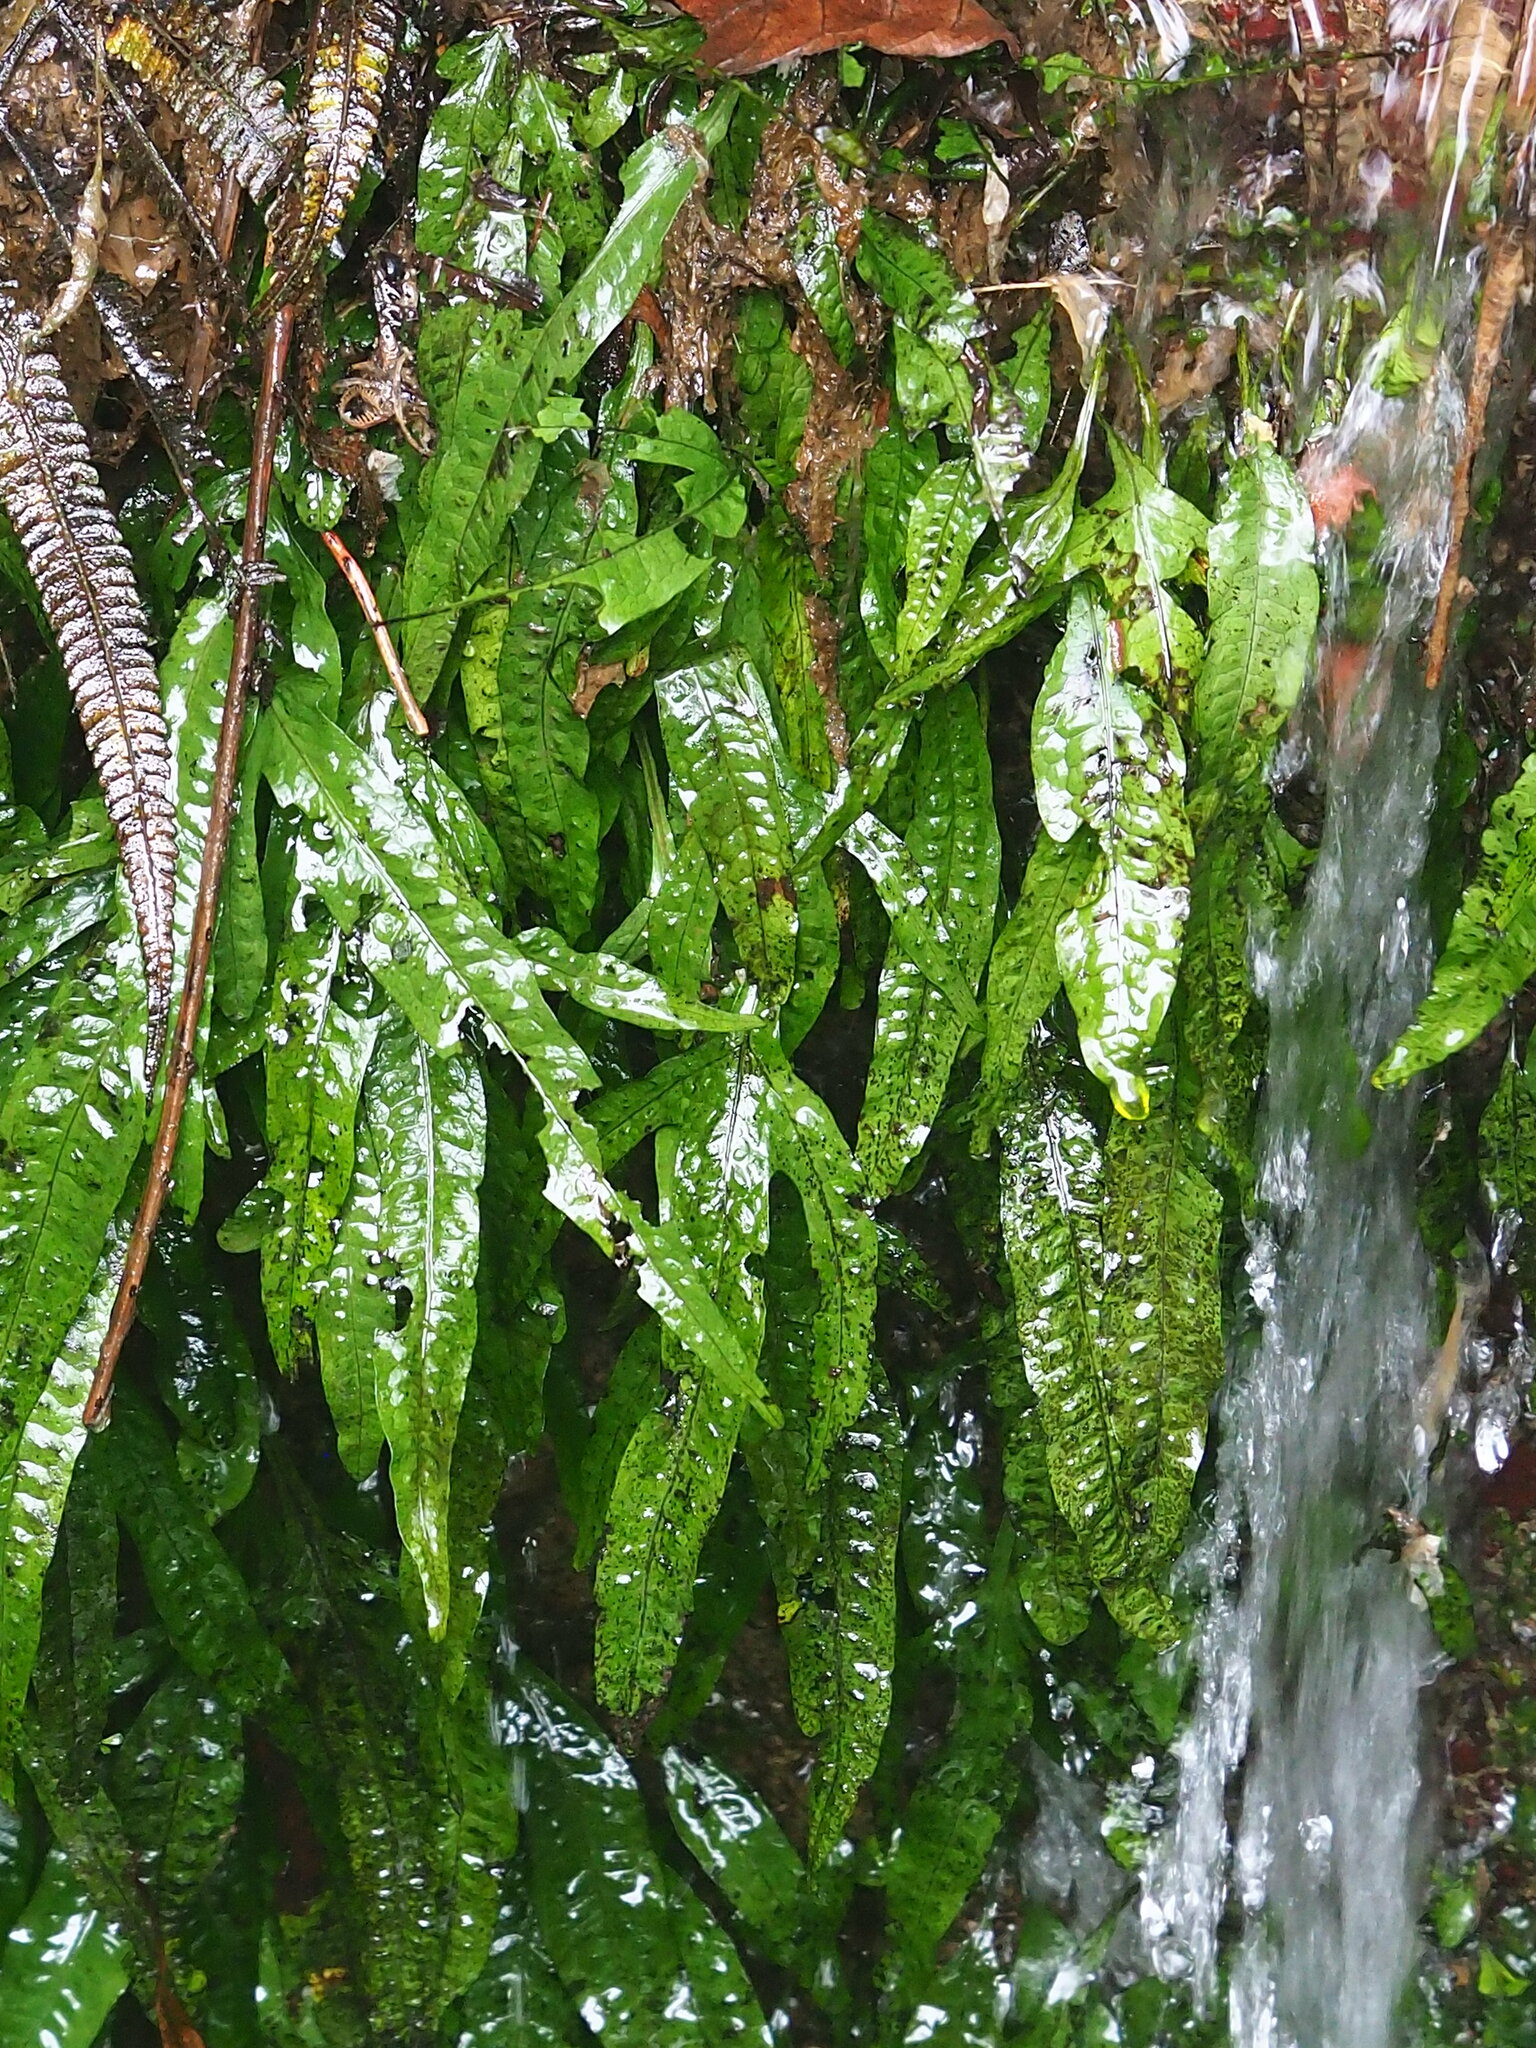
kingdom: Plantae
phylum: Tracheophyta
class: Polypodiopsida
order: Polypodiales
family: Polypodiaceae
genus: Leptochilus
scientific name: Leptochilus pteropus
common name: Java fern
